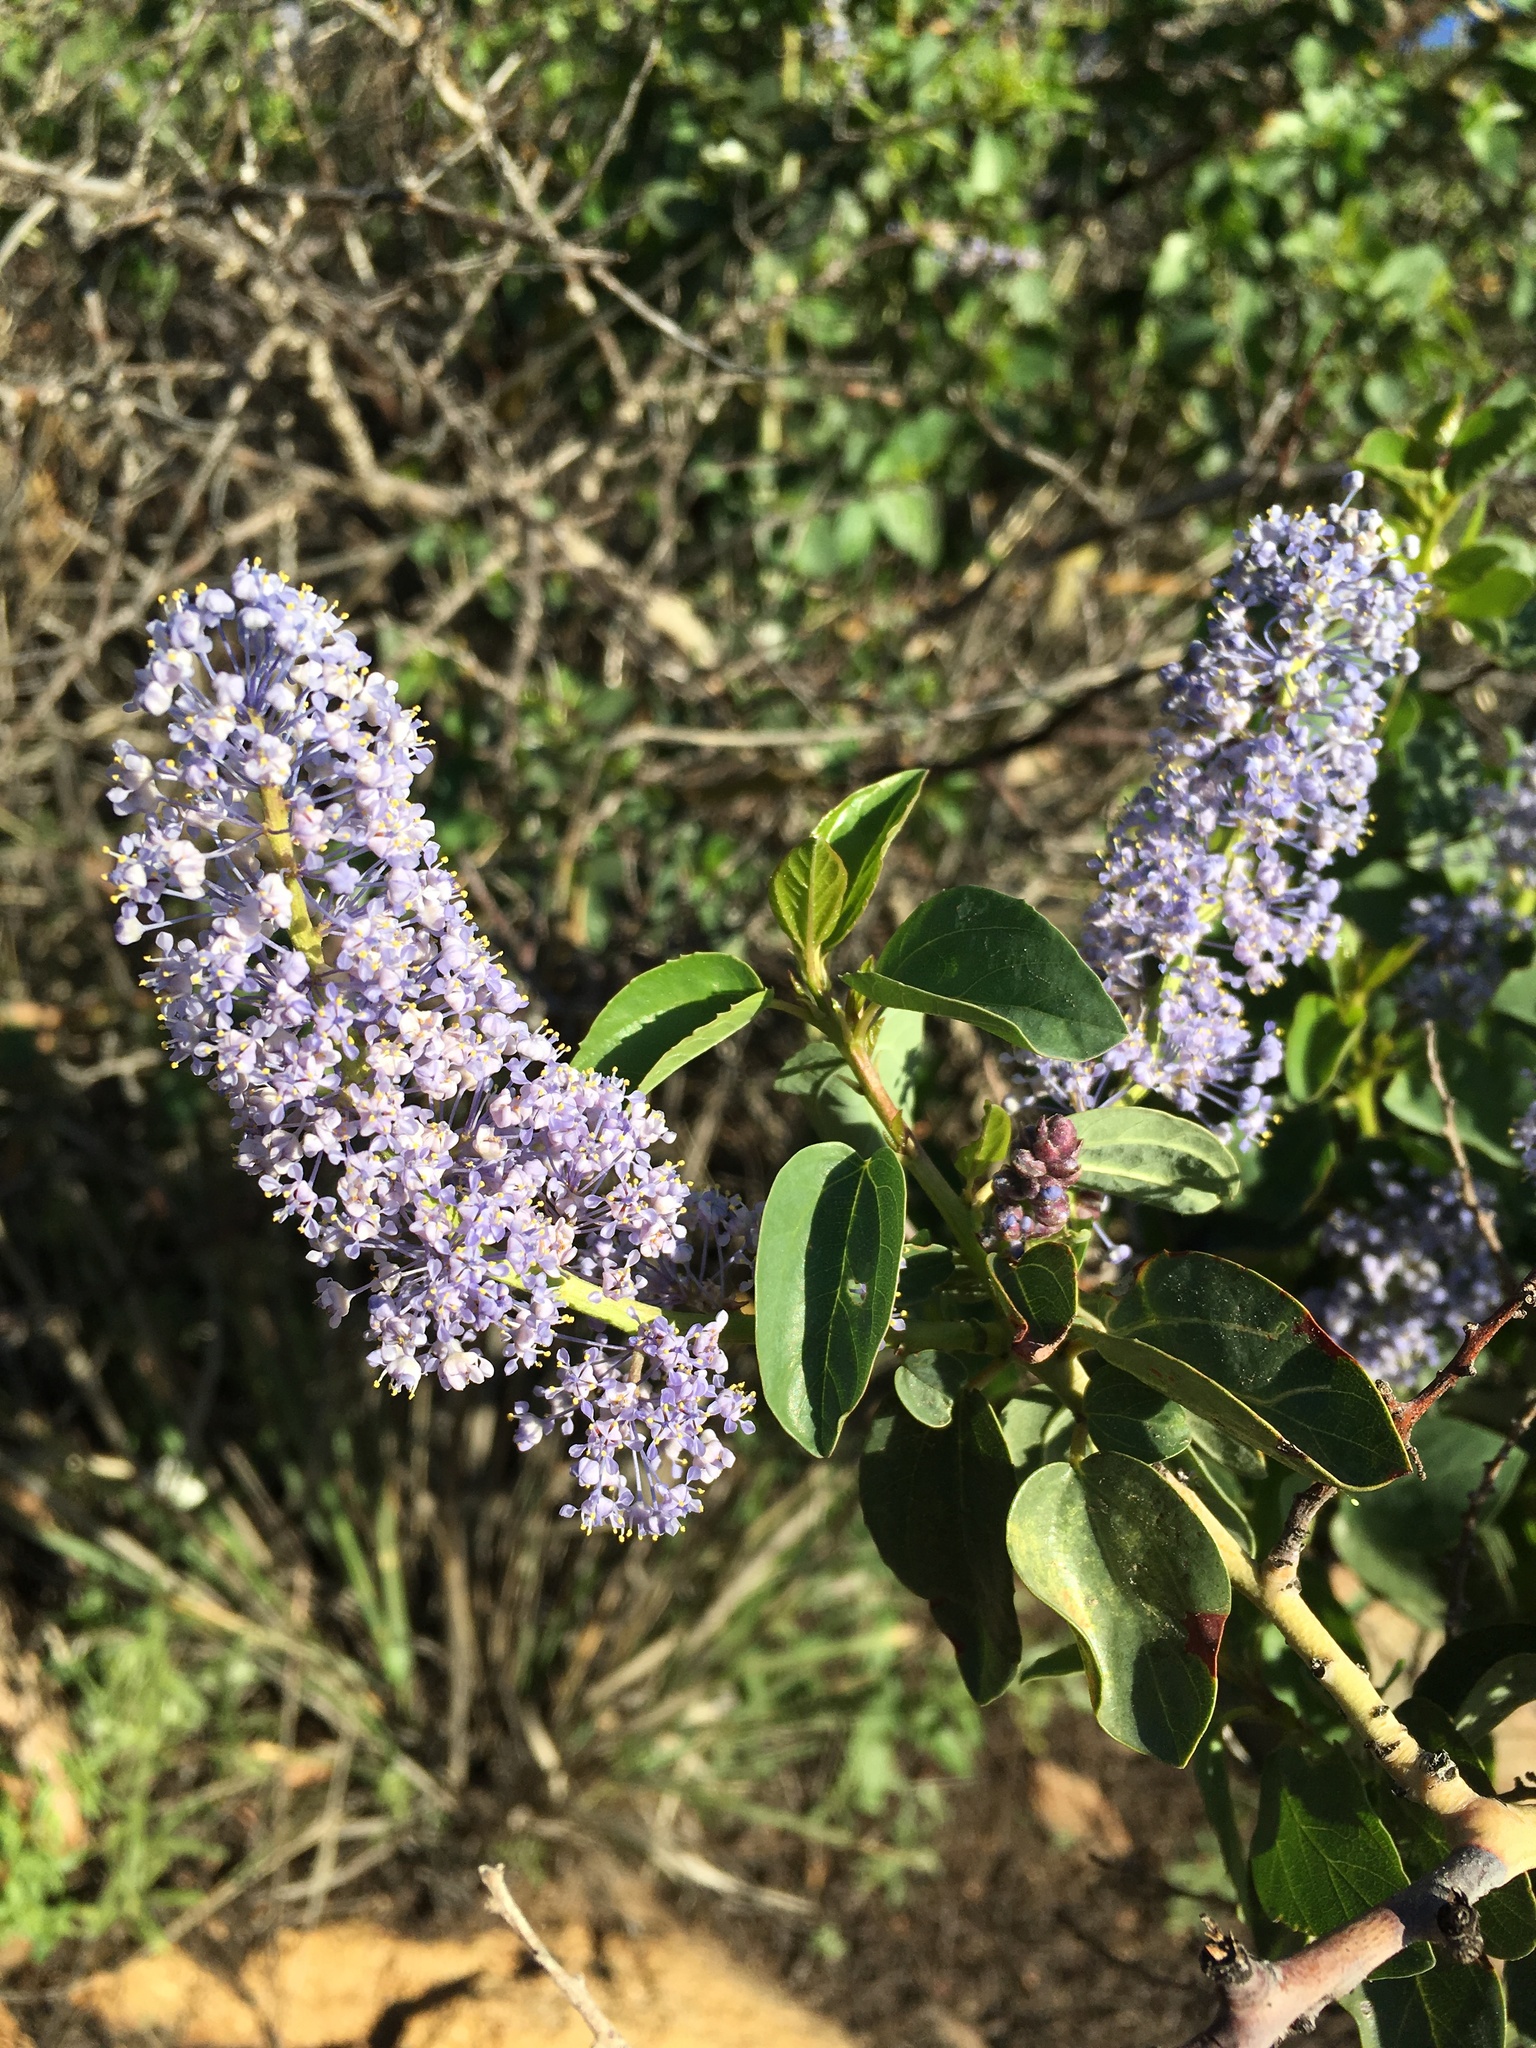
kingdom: Plantae
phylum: Tracheophyta
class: Magnoliopsida
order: Rosales
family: Rhamnaceae
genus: Ceanothus
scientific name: Ceanothus leucodermis
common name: Chaparral whitethorn
